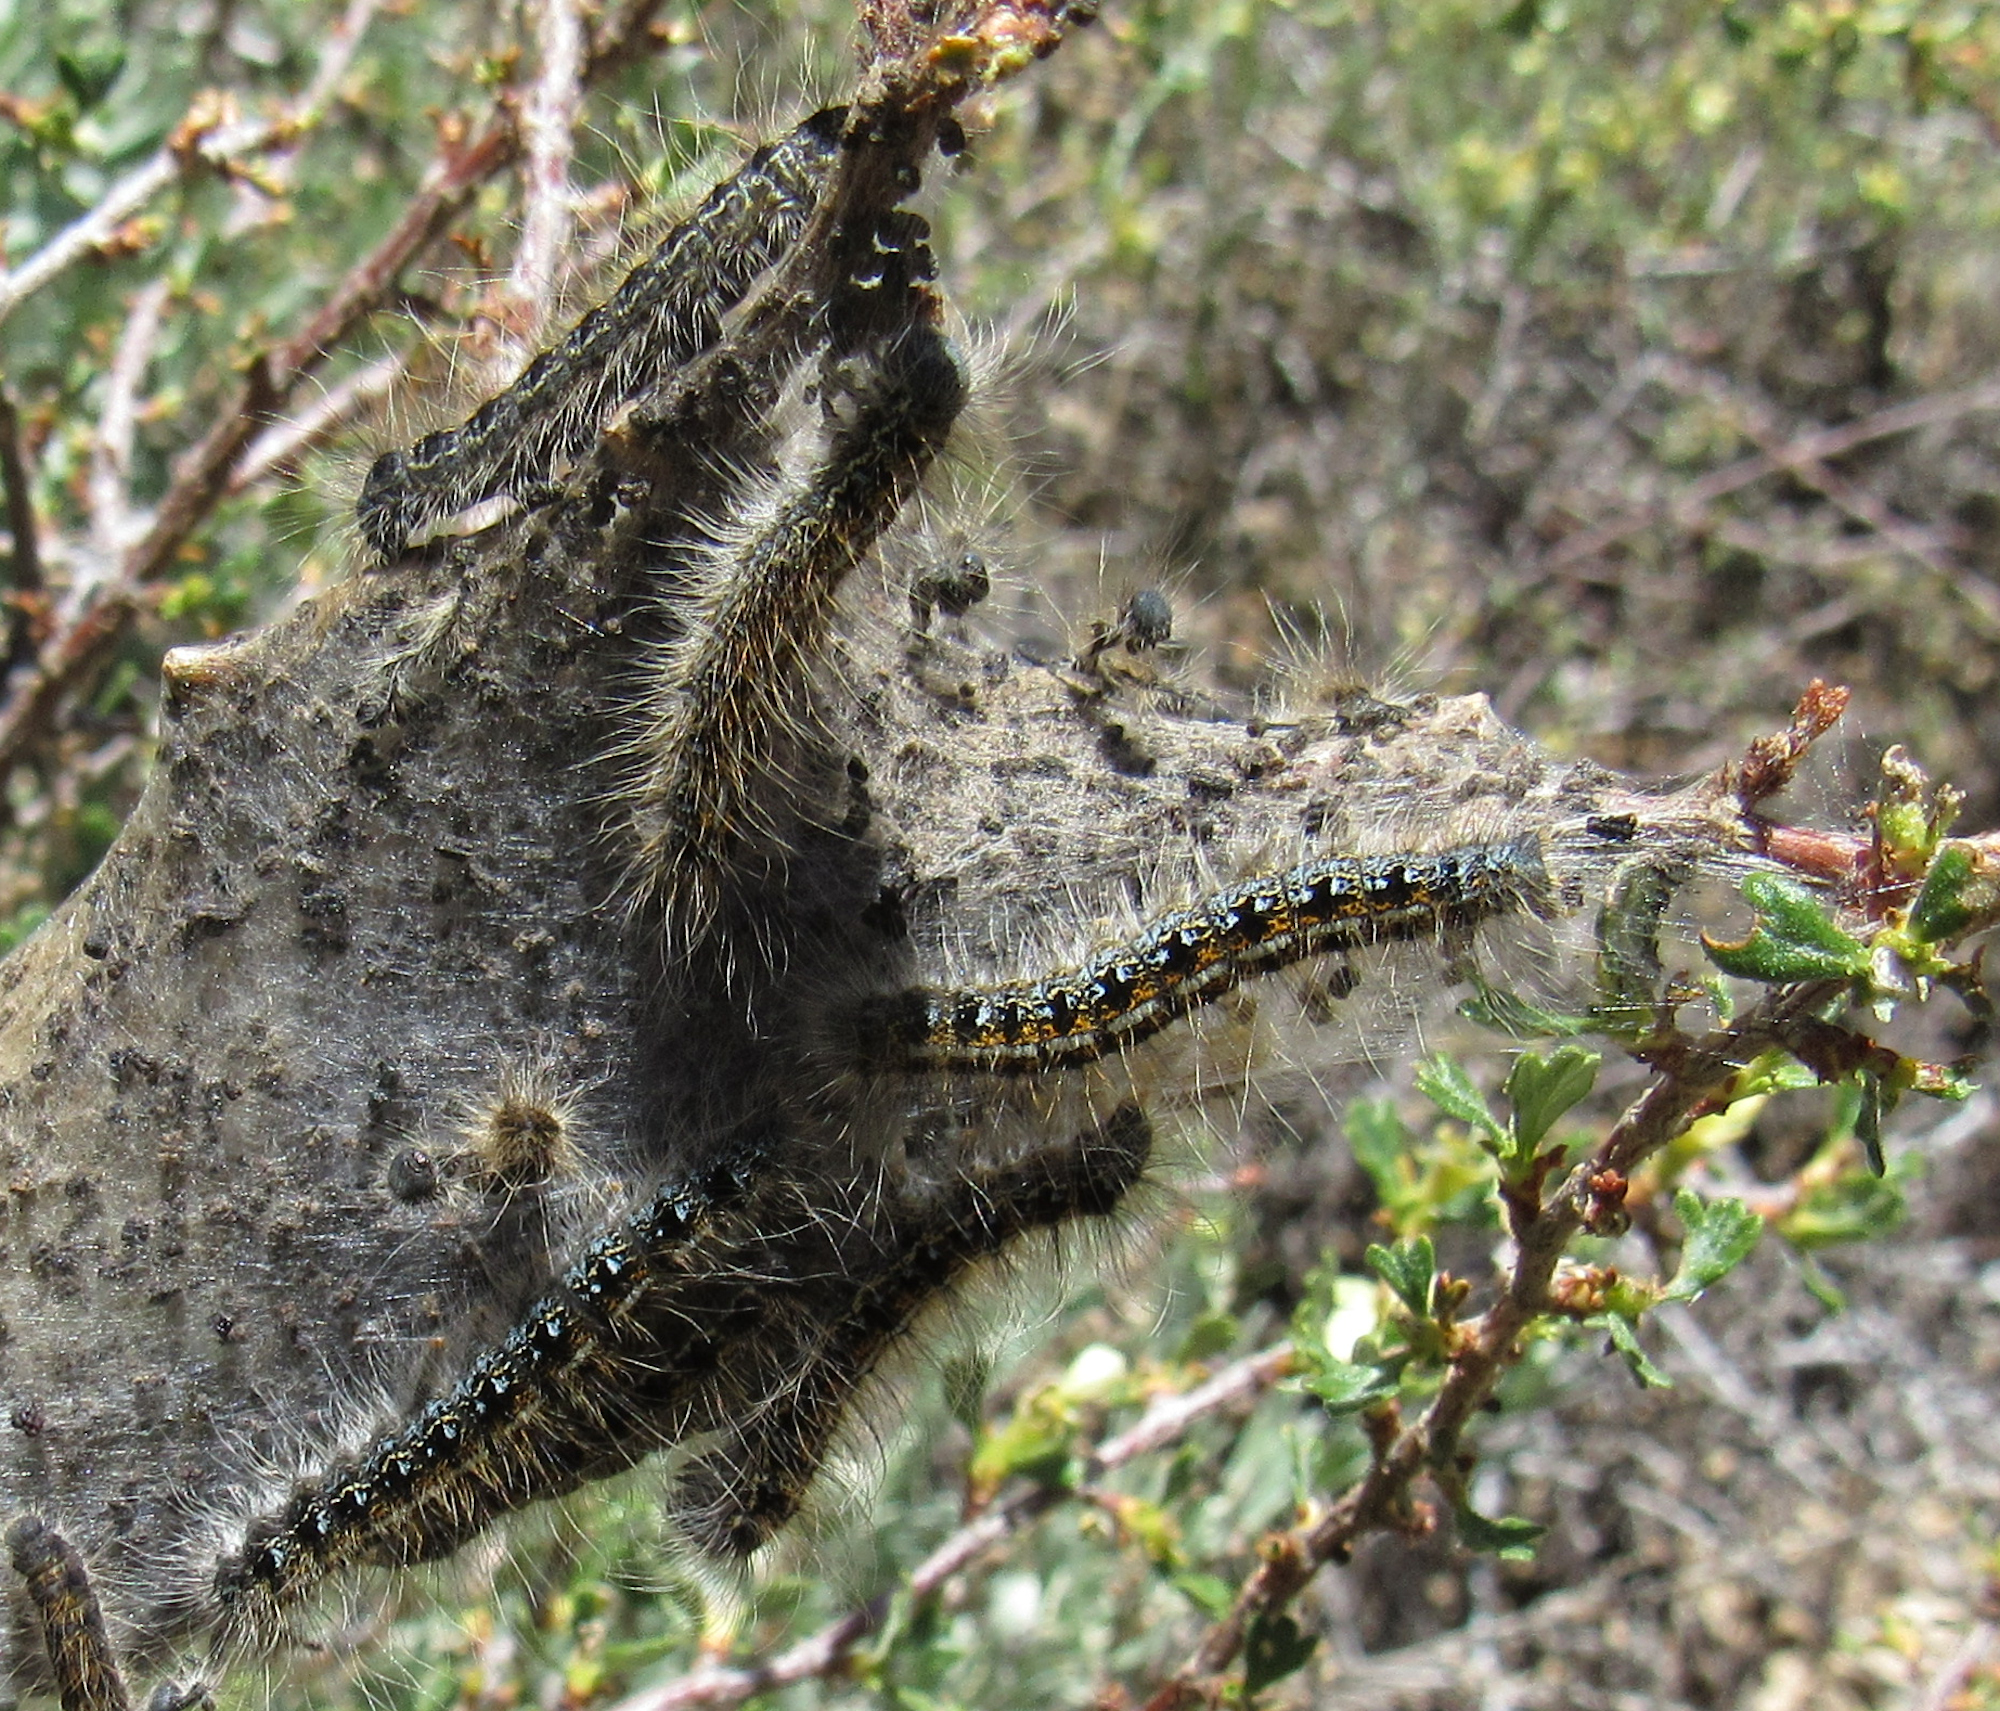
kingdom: Animalia
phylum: Arthropoda
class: Insecta
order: Lepidoptera
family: Lasiocampidae
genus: Malacosoma
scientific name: Malacosoma californica
